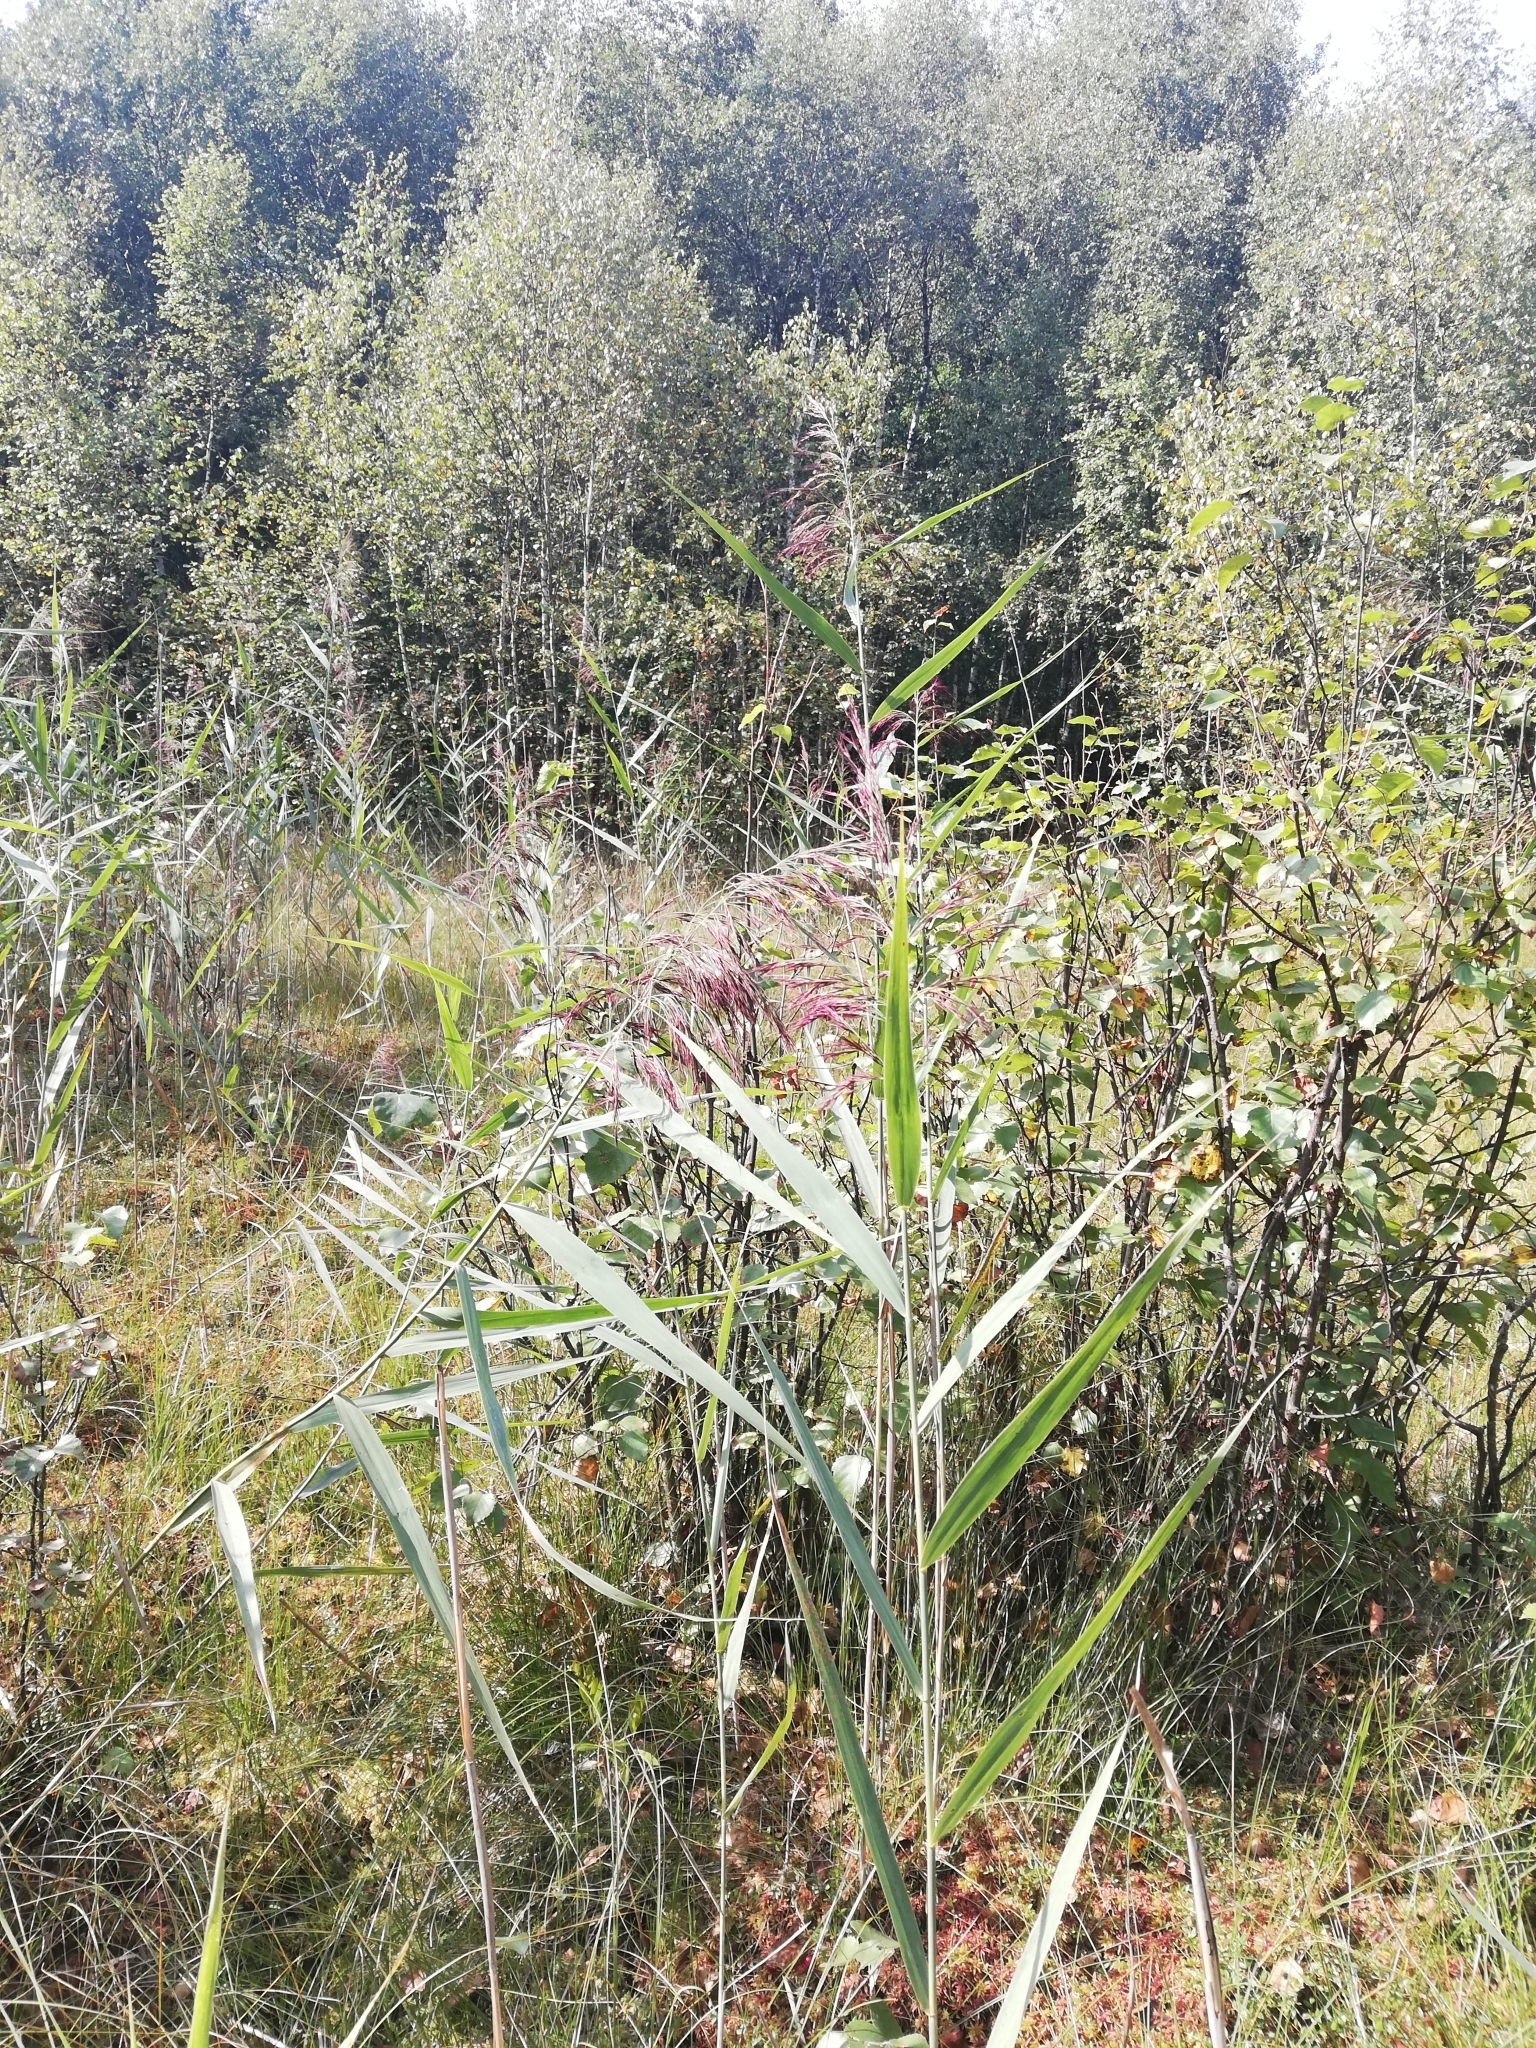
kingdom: Plantae
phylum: Tracheophyta
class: Liliopsida
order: Poales
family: Poaceae
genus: Phragmites
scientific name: Phragmites australis
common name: Common reed
